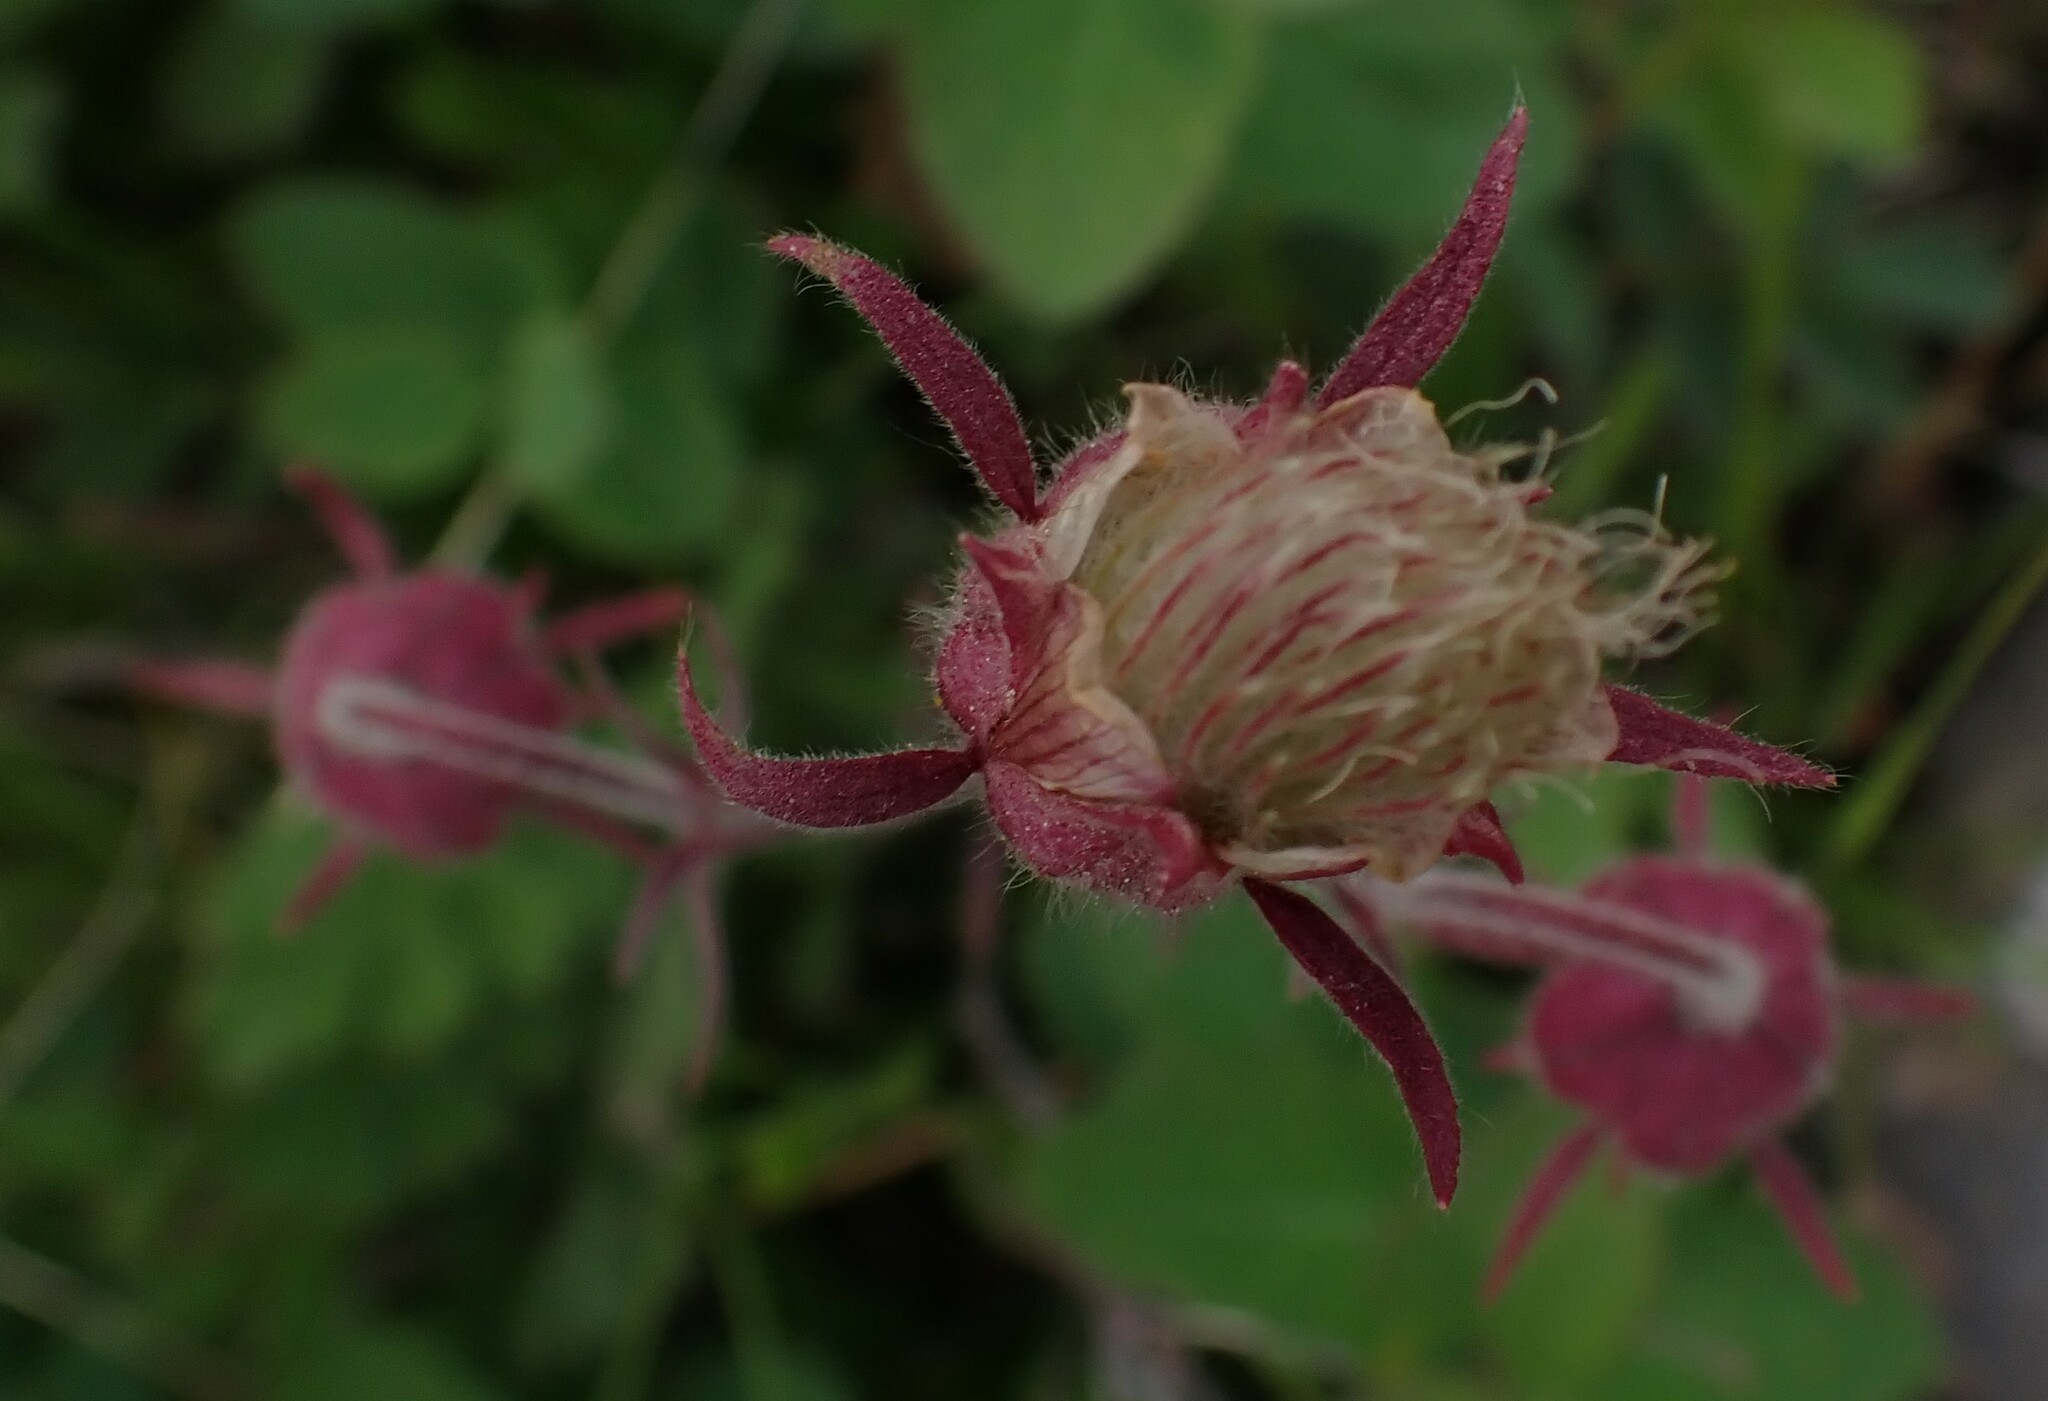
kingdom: Plantae
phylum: Tracheophyta
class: Magnoliopsida
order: Rosales
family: Rosaceae
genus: Geum
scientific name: Geum triflorum
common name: Old man's whiskers
